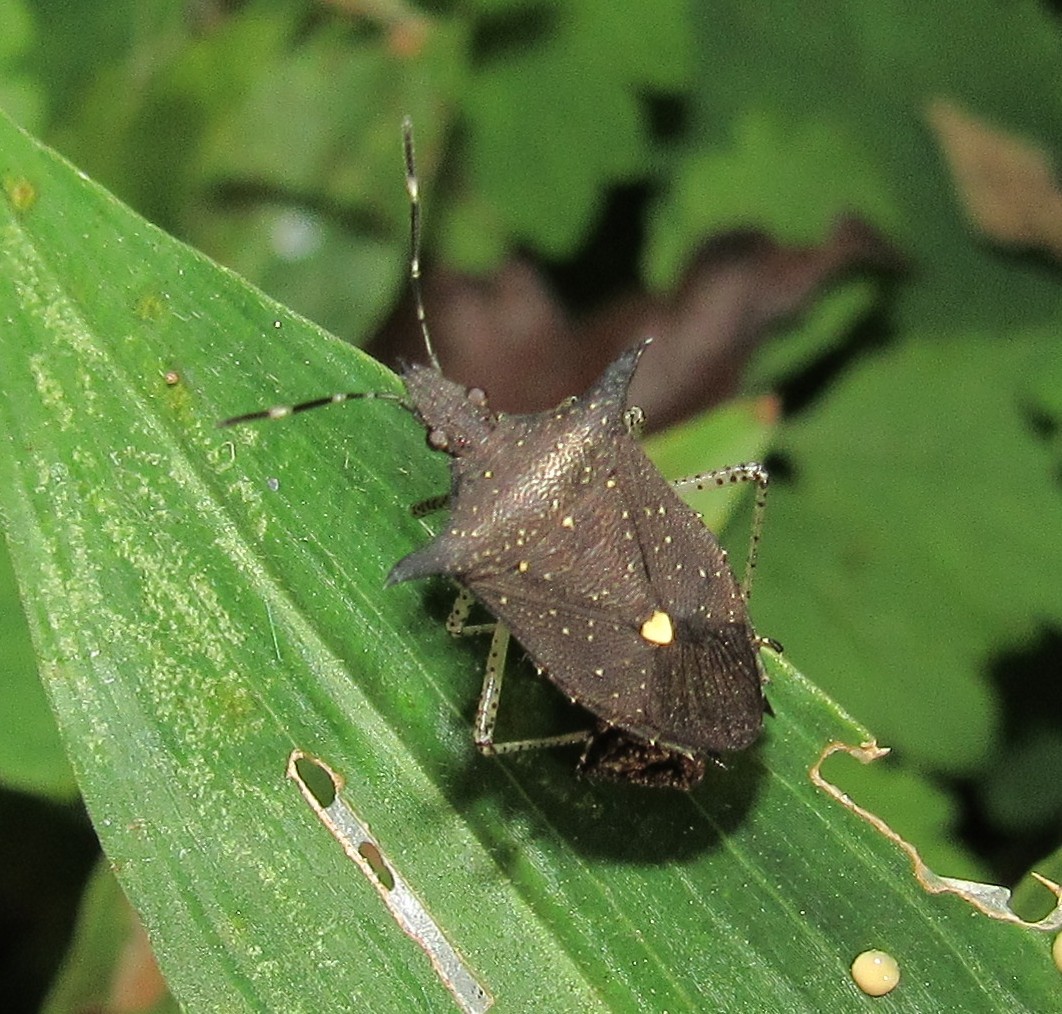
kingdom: Animalia
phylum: Arthropoda
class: Insecta
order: Hemiptera
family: Pentatomidae
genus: Proxys
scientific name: Proxys albopunctulatus
